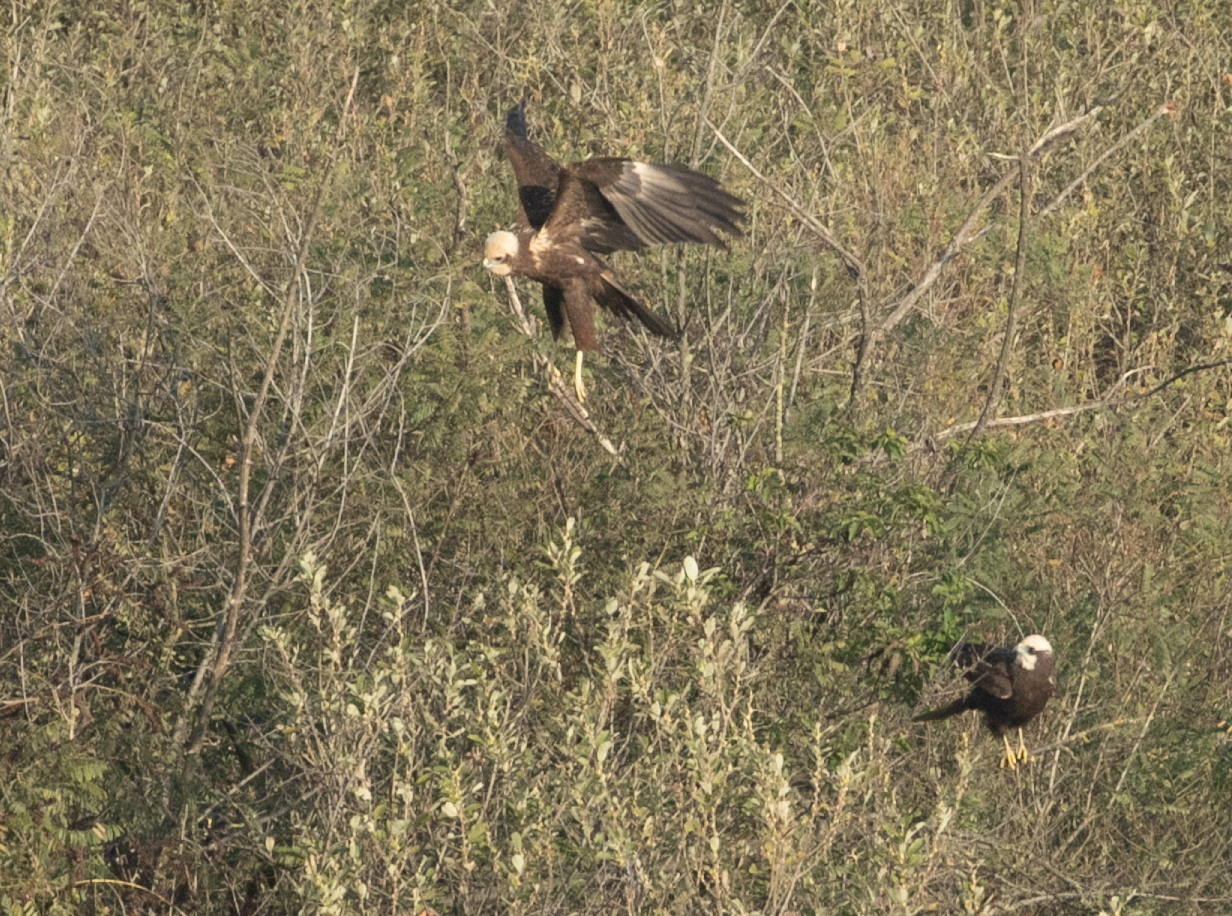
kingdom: Animalia
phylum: Chordata
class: Aves
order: Accipitriformes
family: Accipitridae
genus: Circus
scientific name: Circus aeruginosus
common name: Western marsh harrier
